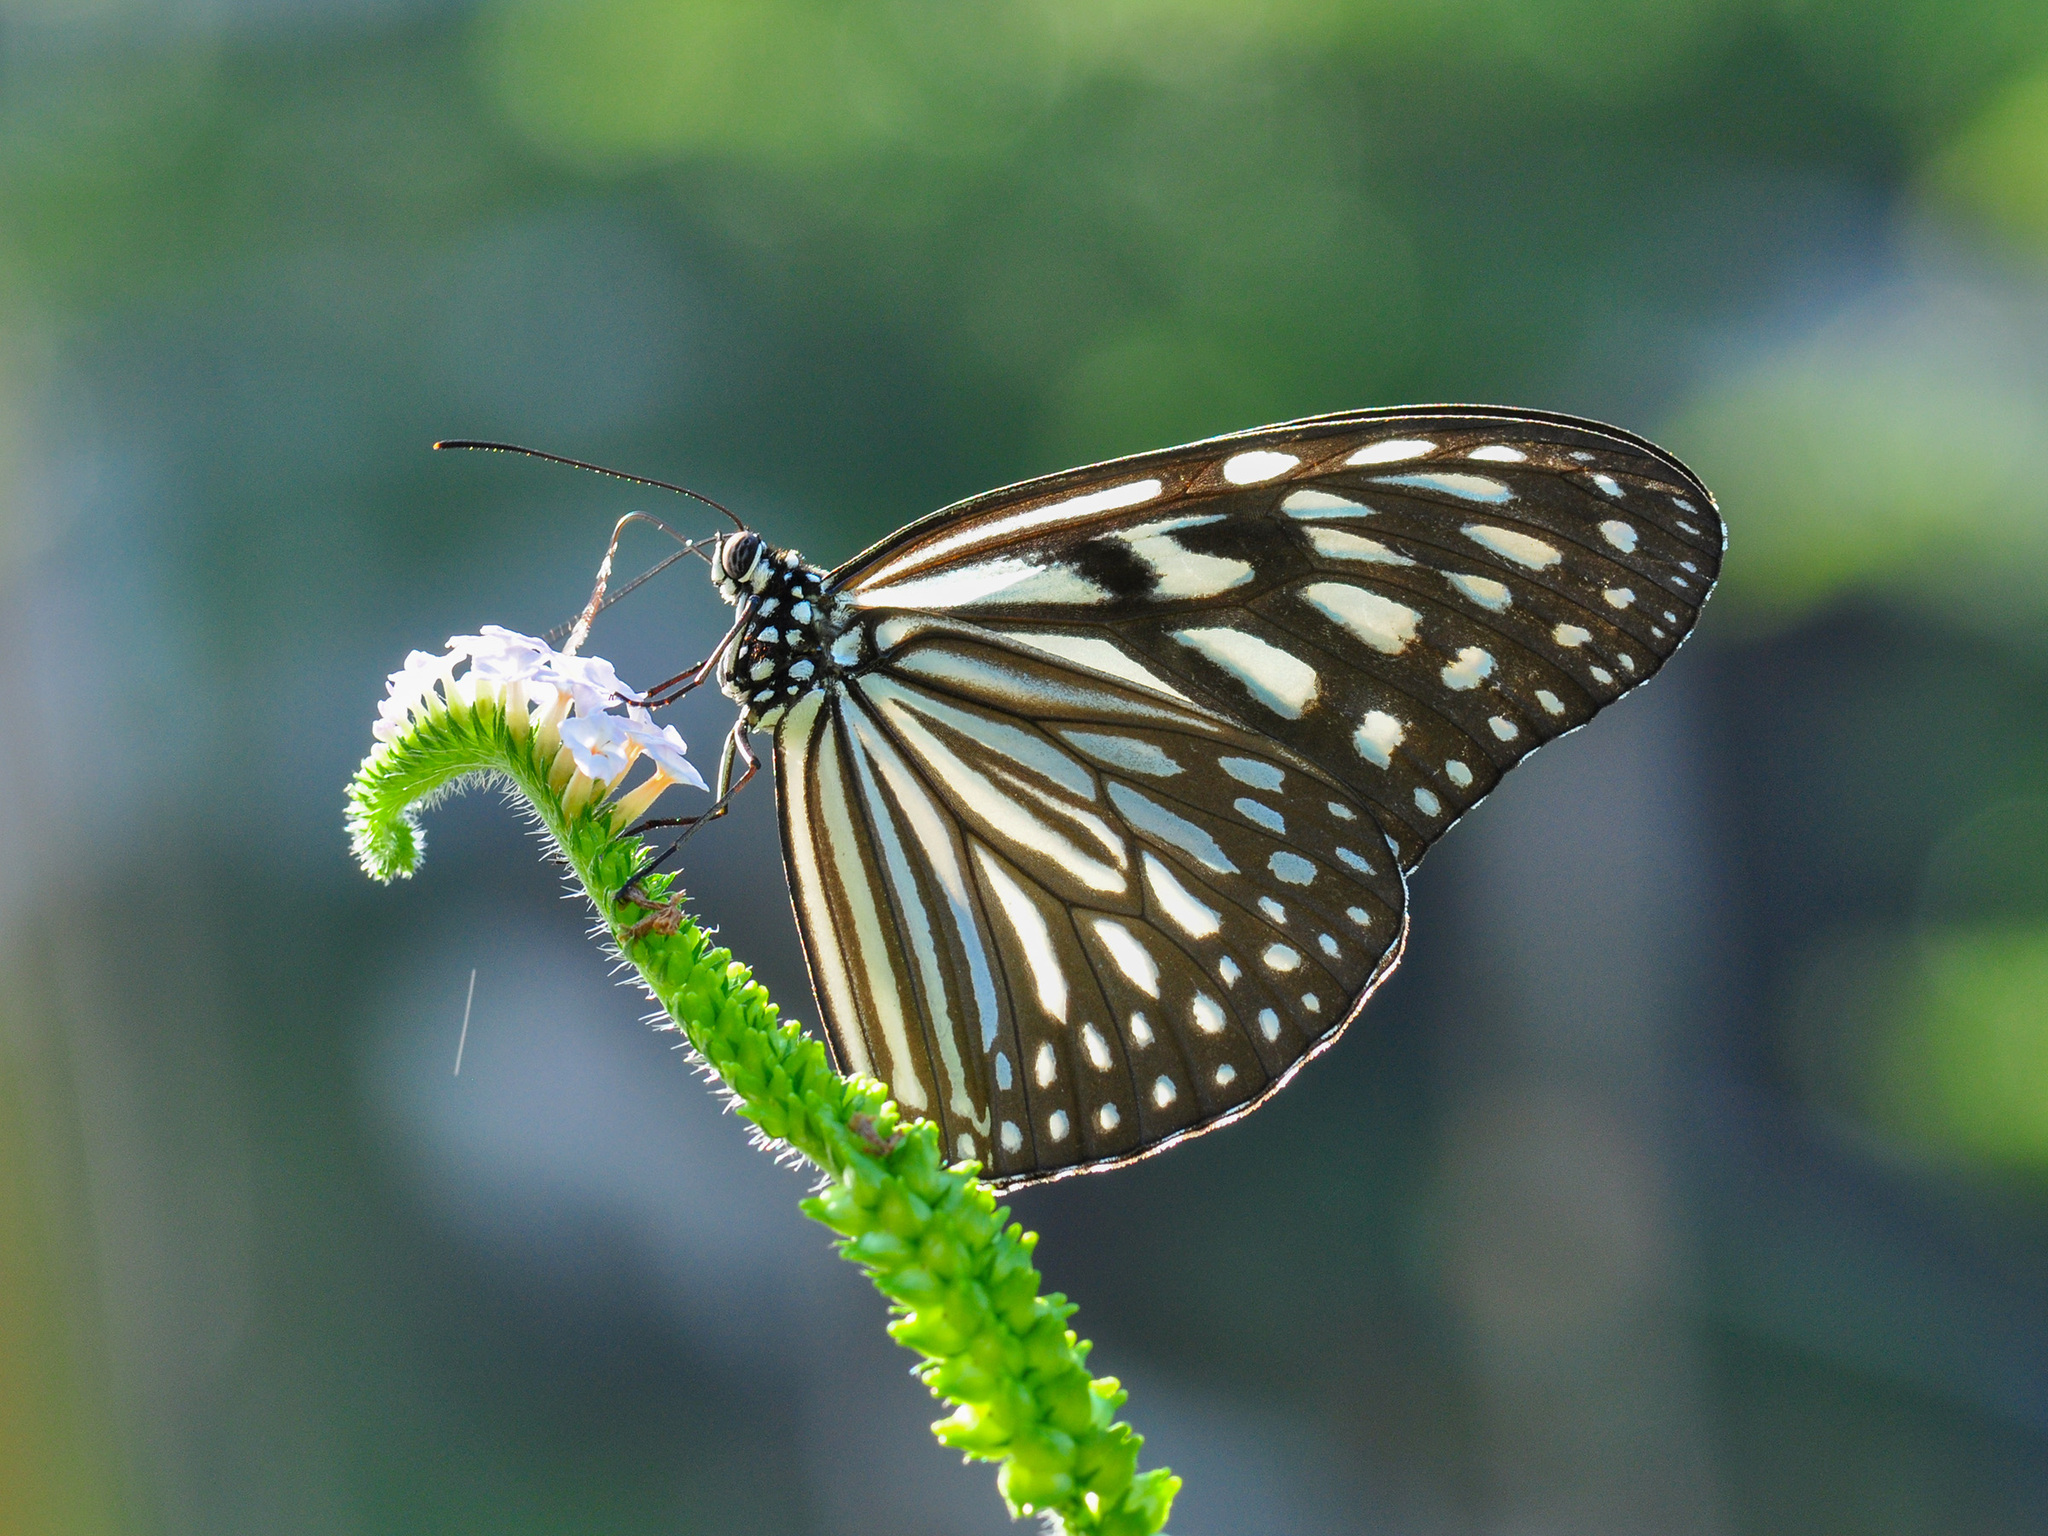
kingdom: Animalia
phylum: Arthropoda
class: Insecta
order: Lepidoptera
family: Nymphalidae
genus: Ideopsis
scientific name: Ideopsis vulgaris
